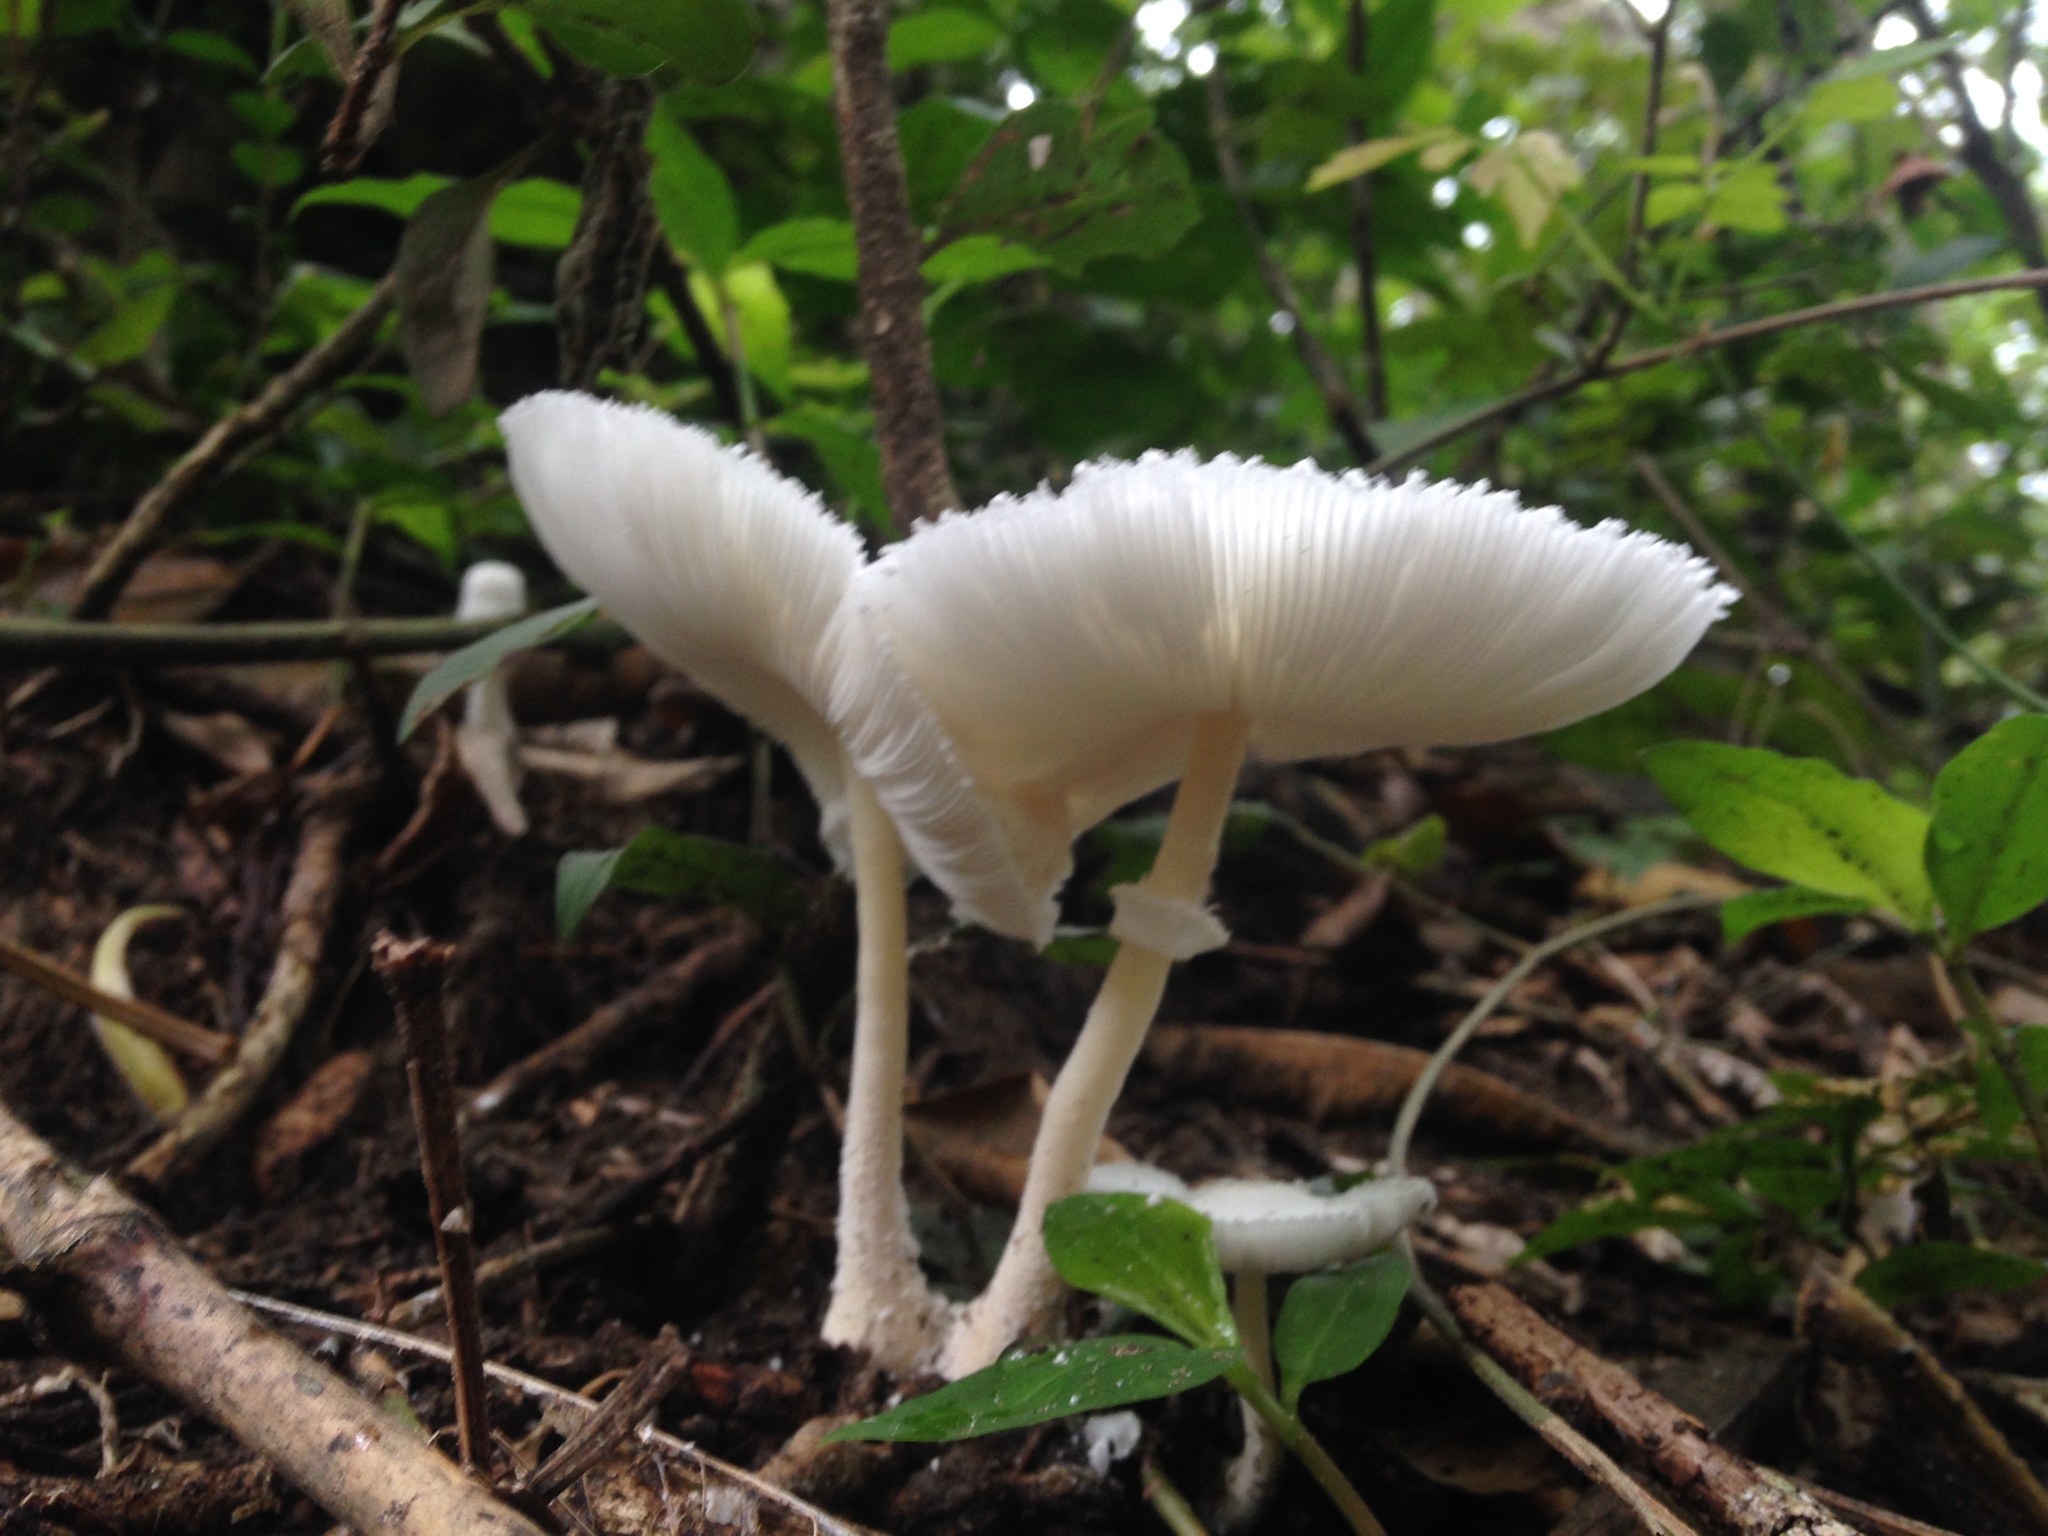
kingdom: Fungi
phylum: Basidiomycota
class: Agaricomycetes
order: Agaricales
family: Agaricaceae
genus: Leucocoprinus
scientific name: Leucocoprinus cretaceus
